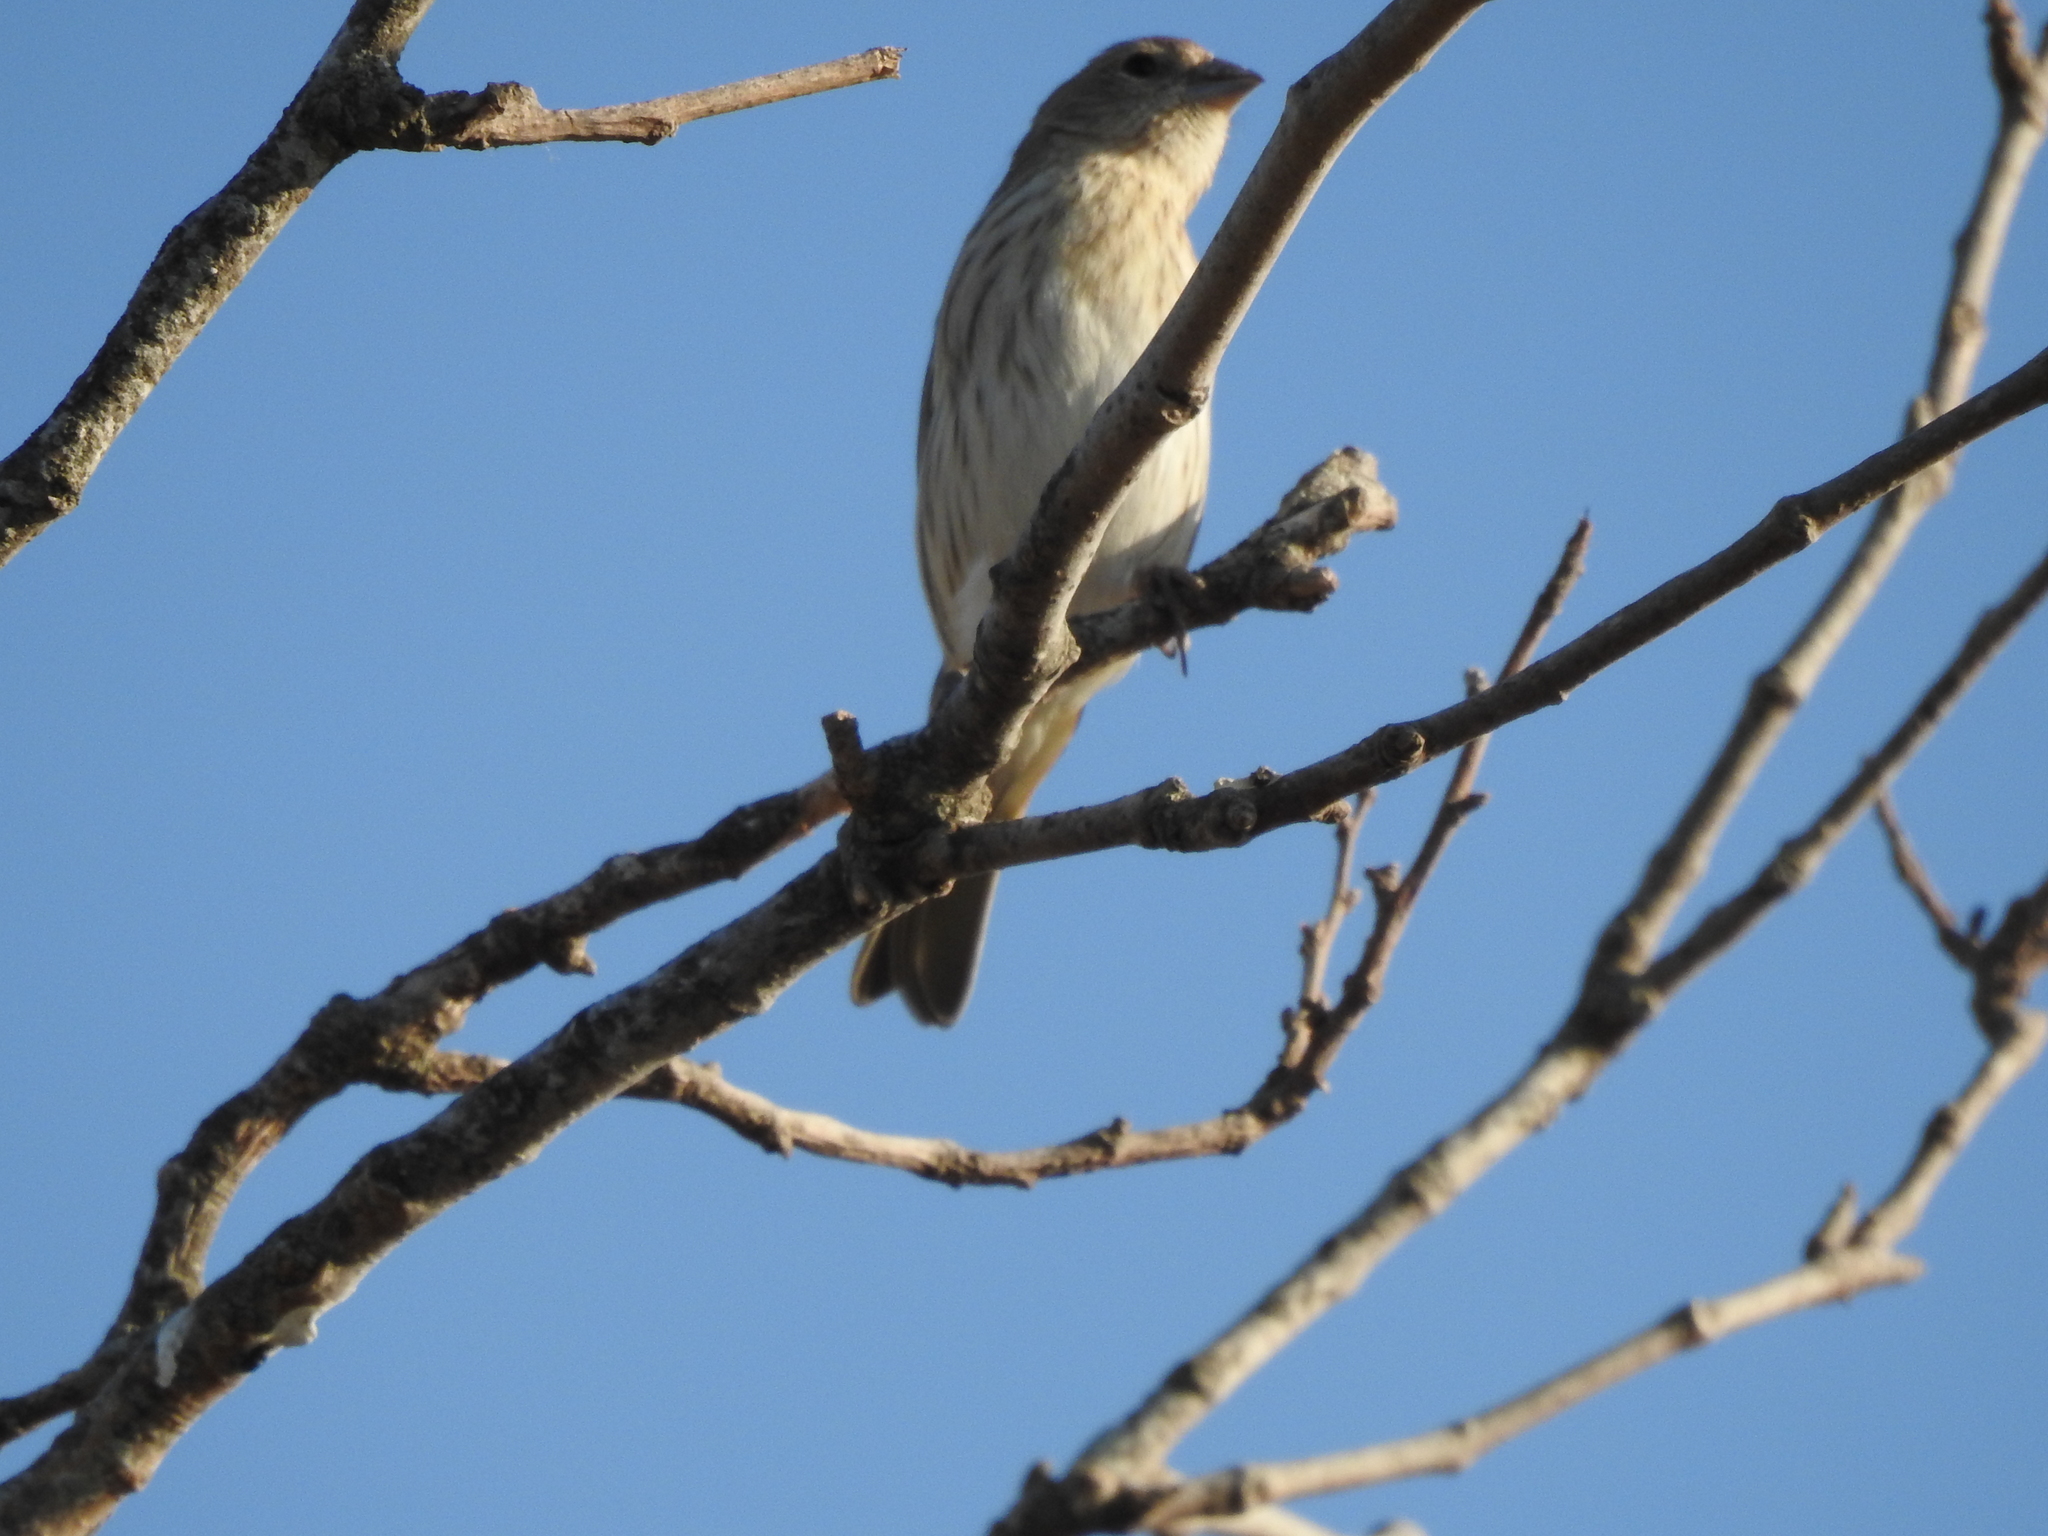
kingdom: Animalia
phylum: Chordata
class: Aves
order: Passeriformes
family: Thraupidae
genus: Sicalis
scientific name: Sicalis flaveola
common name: Saffron finch
